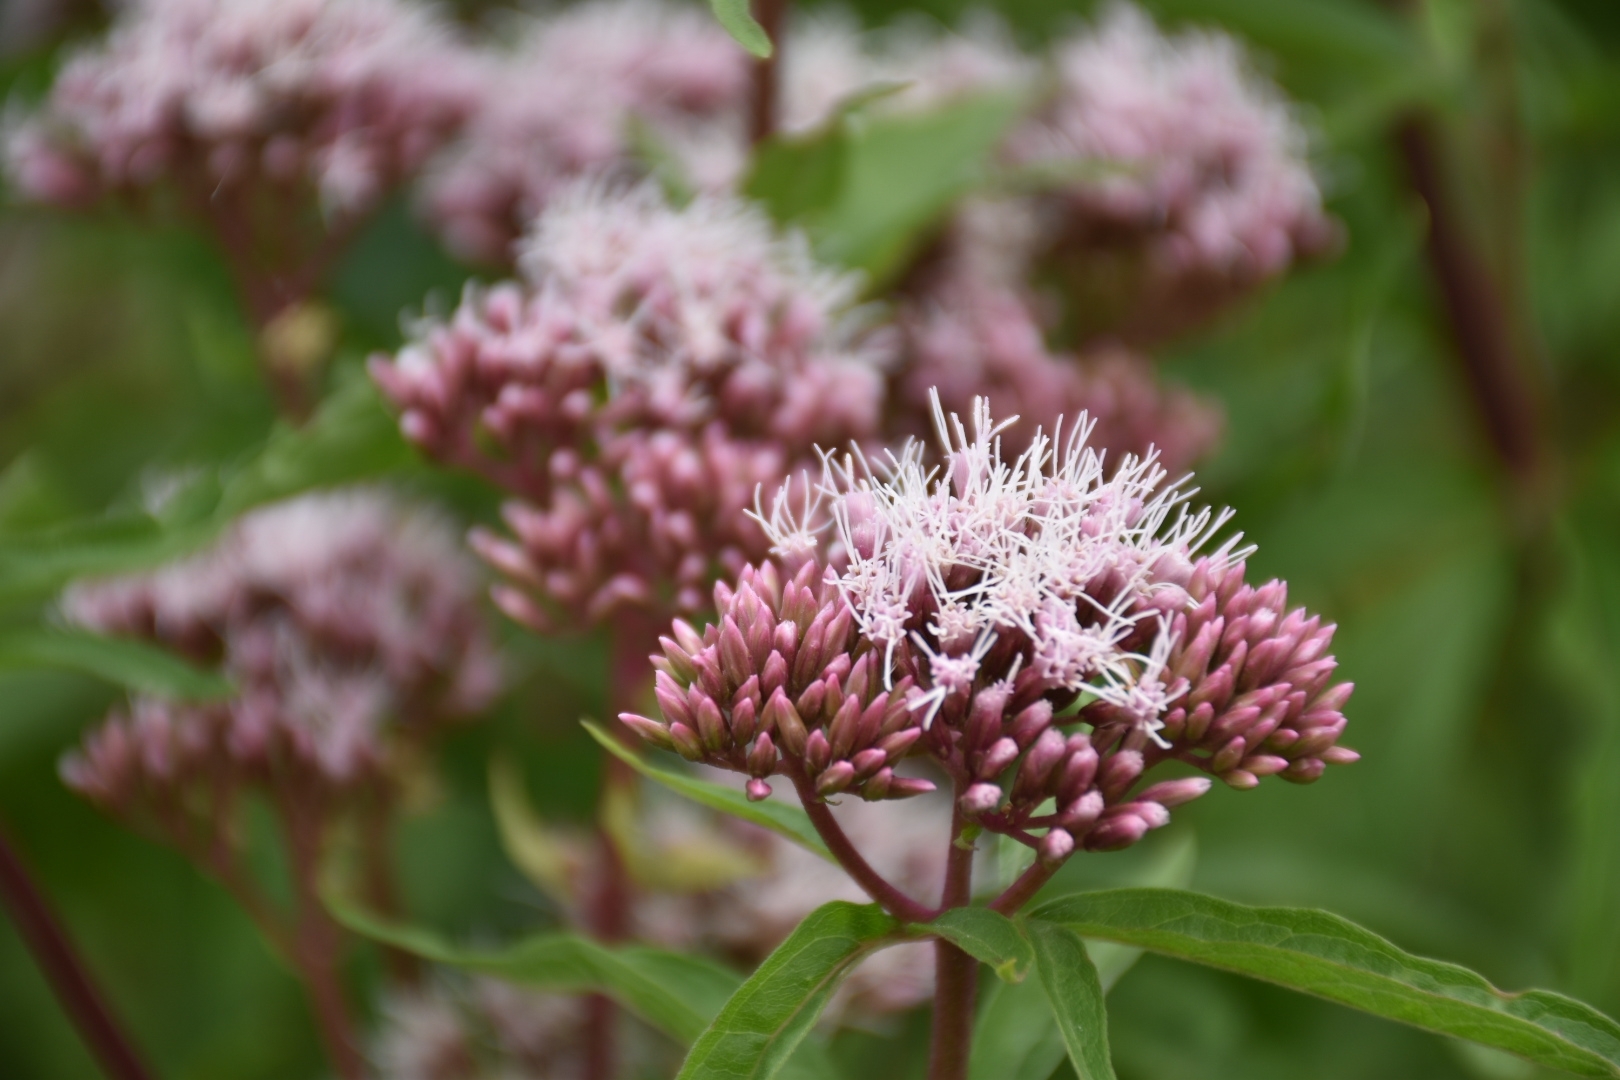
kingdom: Plantae
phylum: Tracheophyta
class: Magnoliopsida
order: Asterales
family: Asteraceae
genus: Eupatorium
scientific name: Eupatorium cannabinum
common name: Hemp-agrimony
